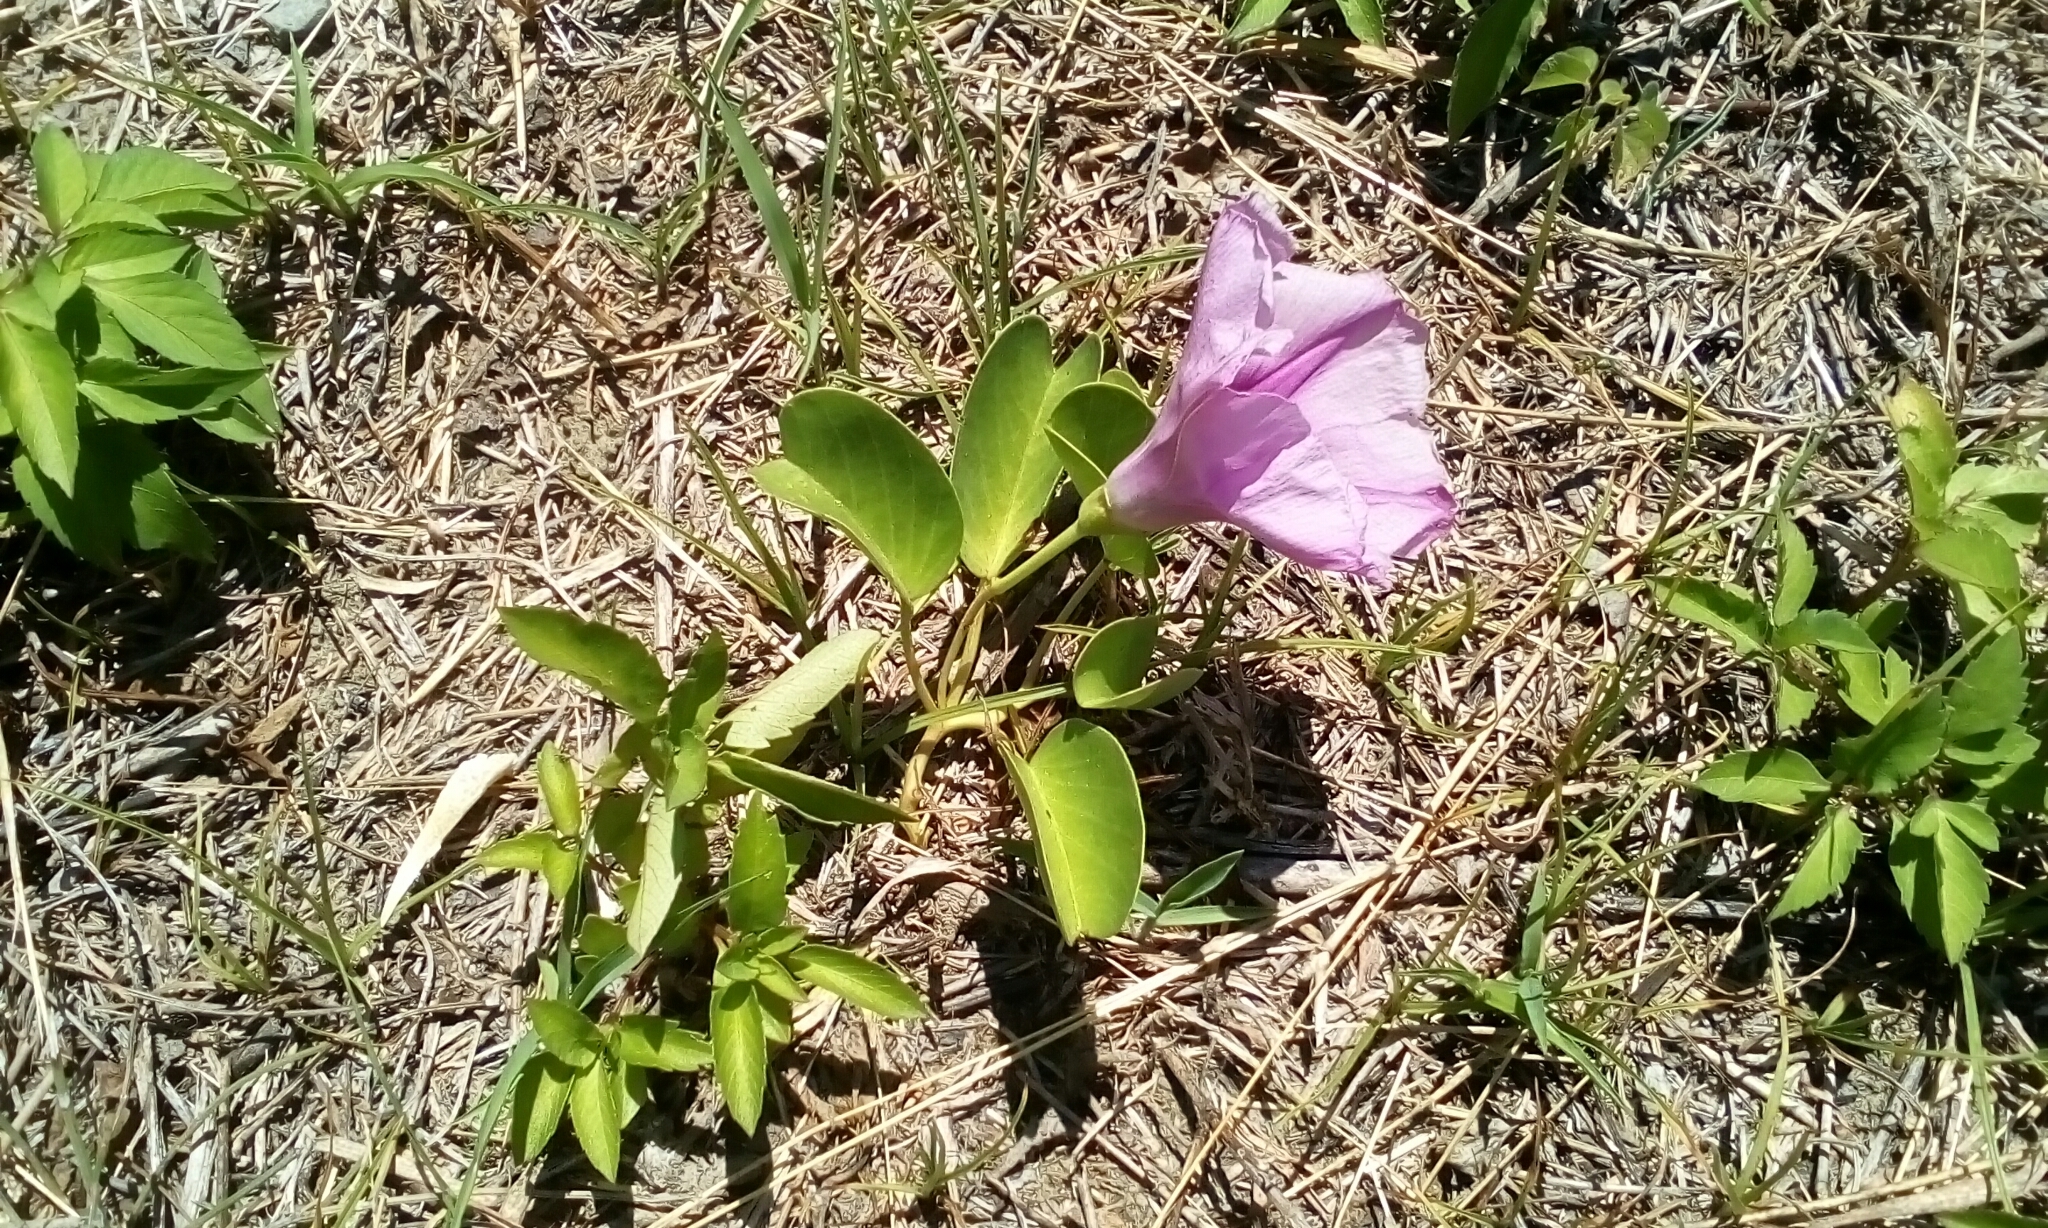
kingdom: Plantae
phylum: Tracheophyta
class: Magnoliopsida
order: Solanales
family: Convolvulaceae
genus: Ipomoea
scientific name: Ipomoea pes-caprae
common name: Beach morning glory
